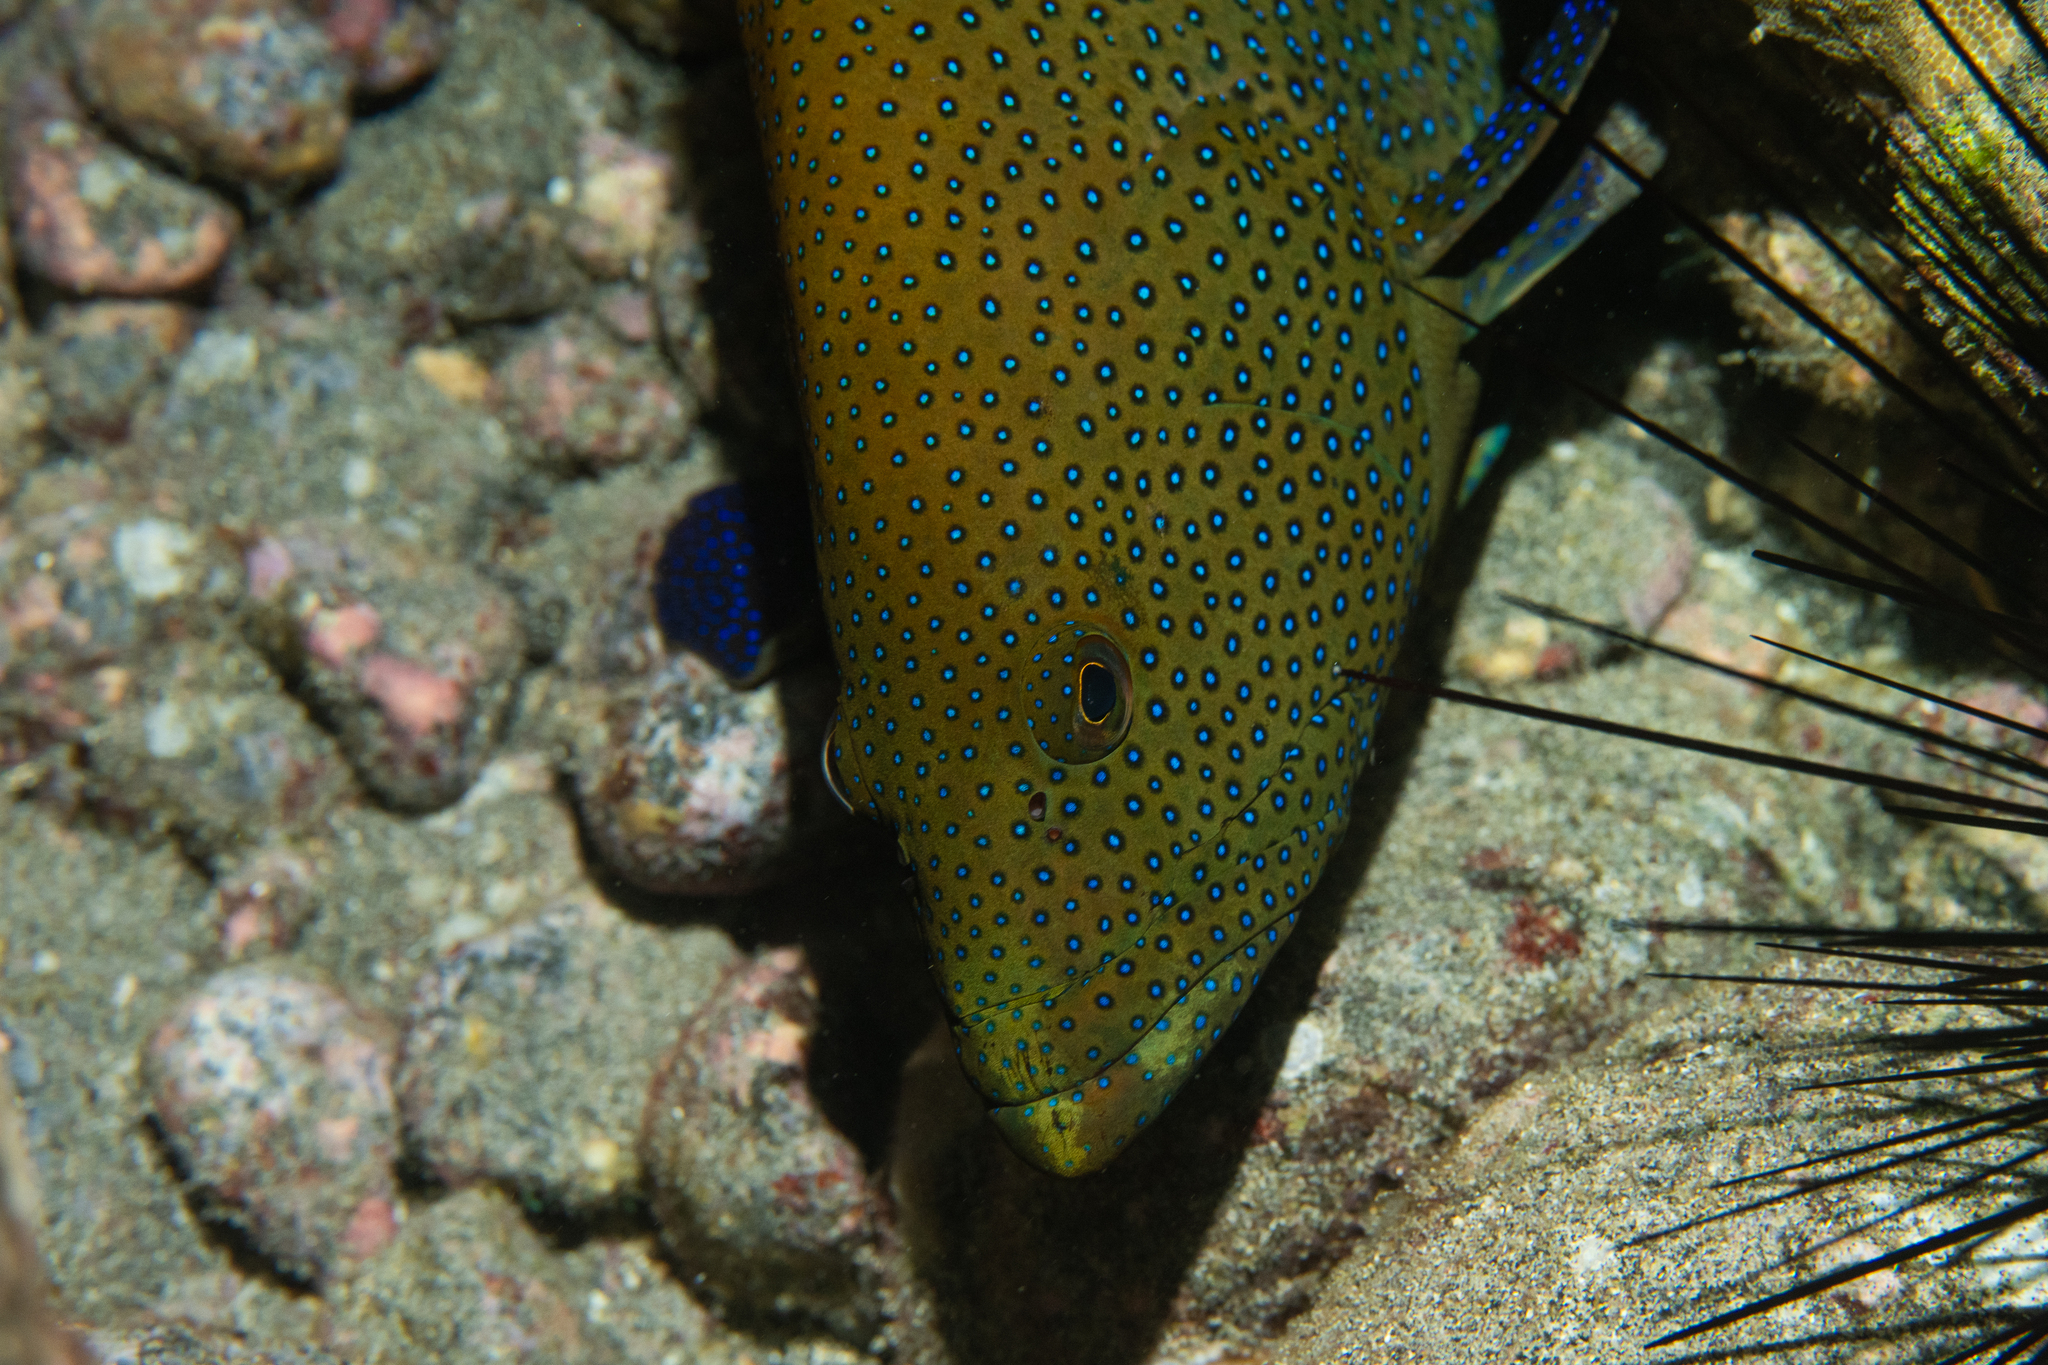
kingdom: Animalia
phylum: Chordata
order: Perciformes
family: Serranidae
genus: Cephalopholis
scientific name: Cephalopholis argus
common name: Peacock grouper
